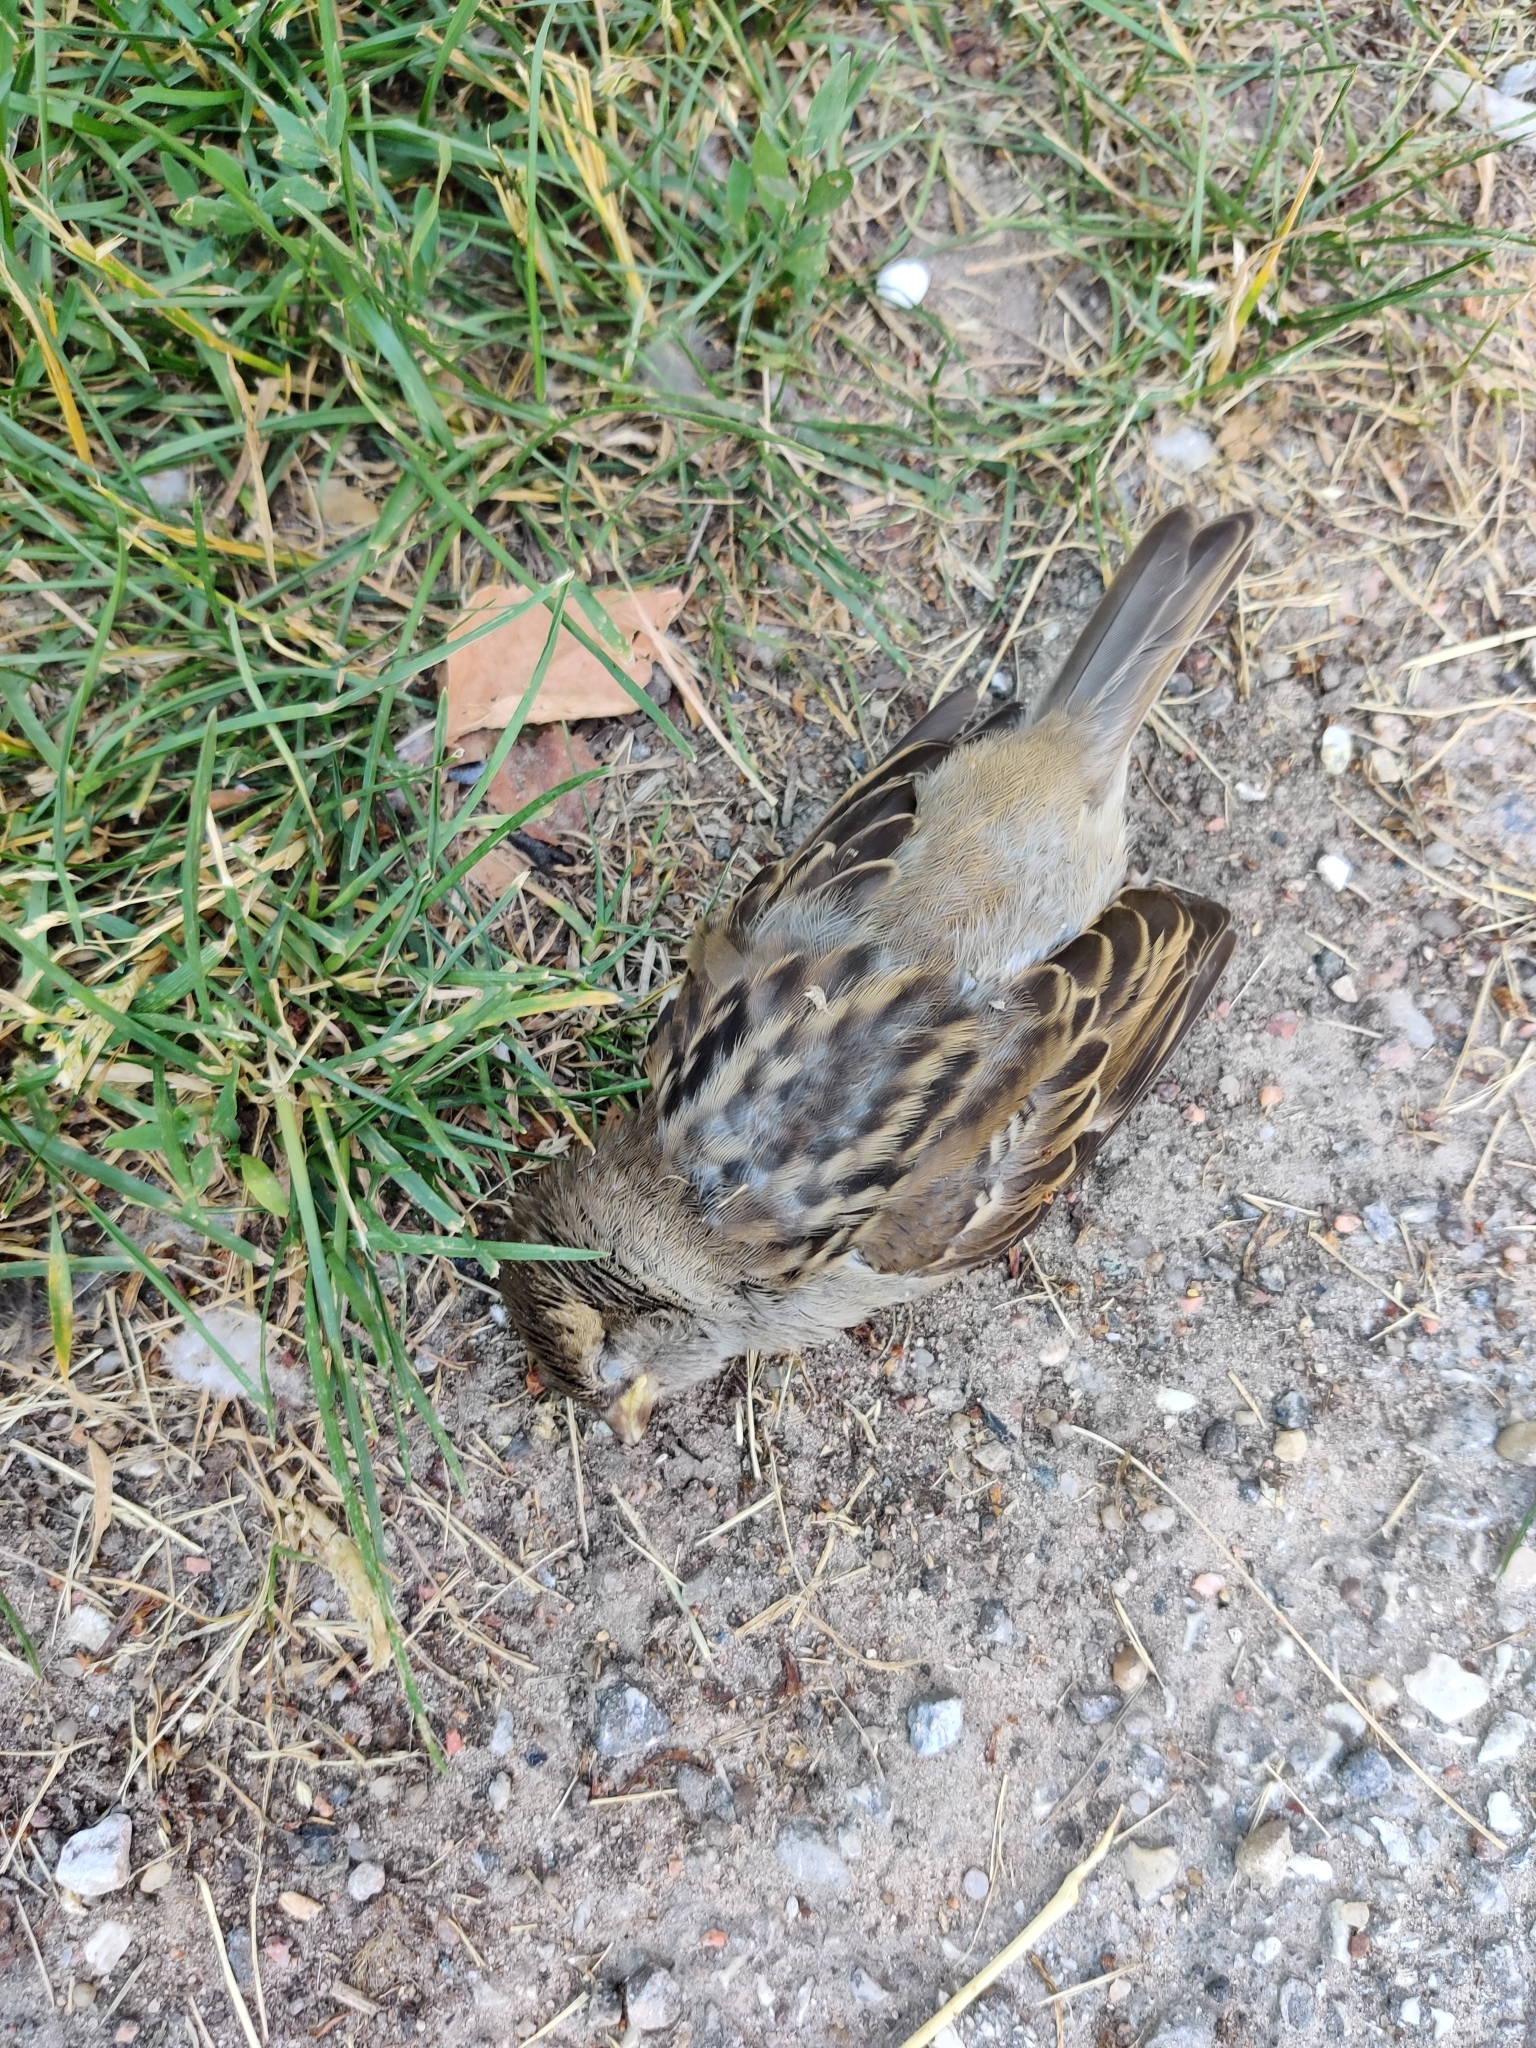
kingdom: Animalia
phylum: Chordata
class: Aves
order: Passeriformes
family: Passeridae
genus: Passer
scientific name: Passer domesticus
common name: House sparrow
